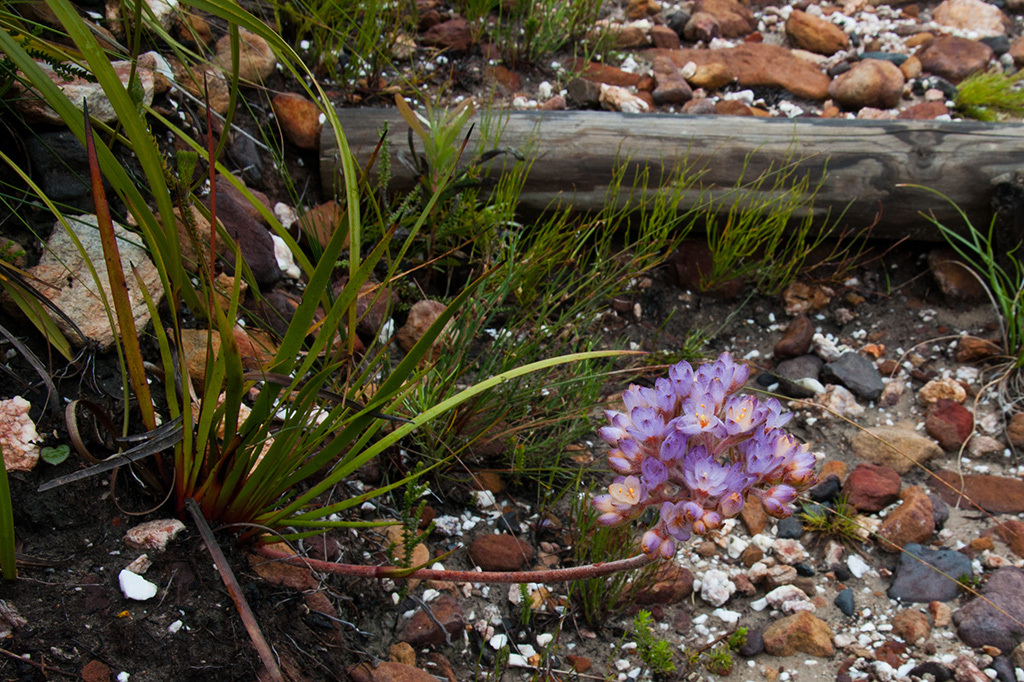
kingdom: Plantae
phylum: Tracheophyta
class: Liliopsida
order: Commelinales
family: Haemodoraceae
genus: Dilatris
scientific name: Dilatris pillansii
